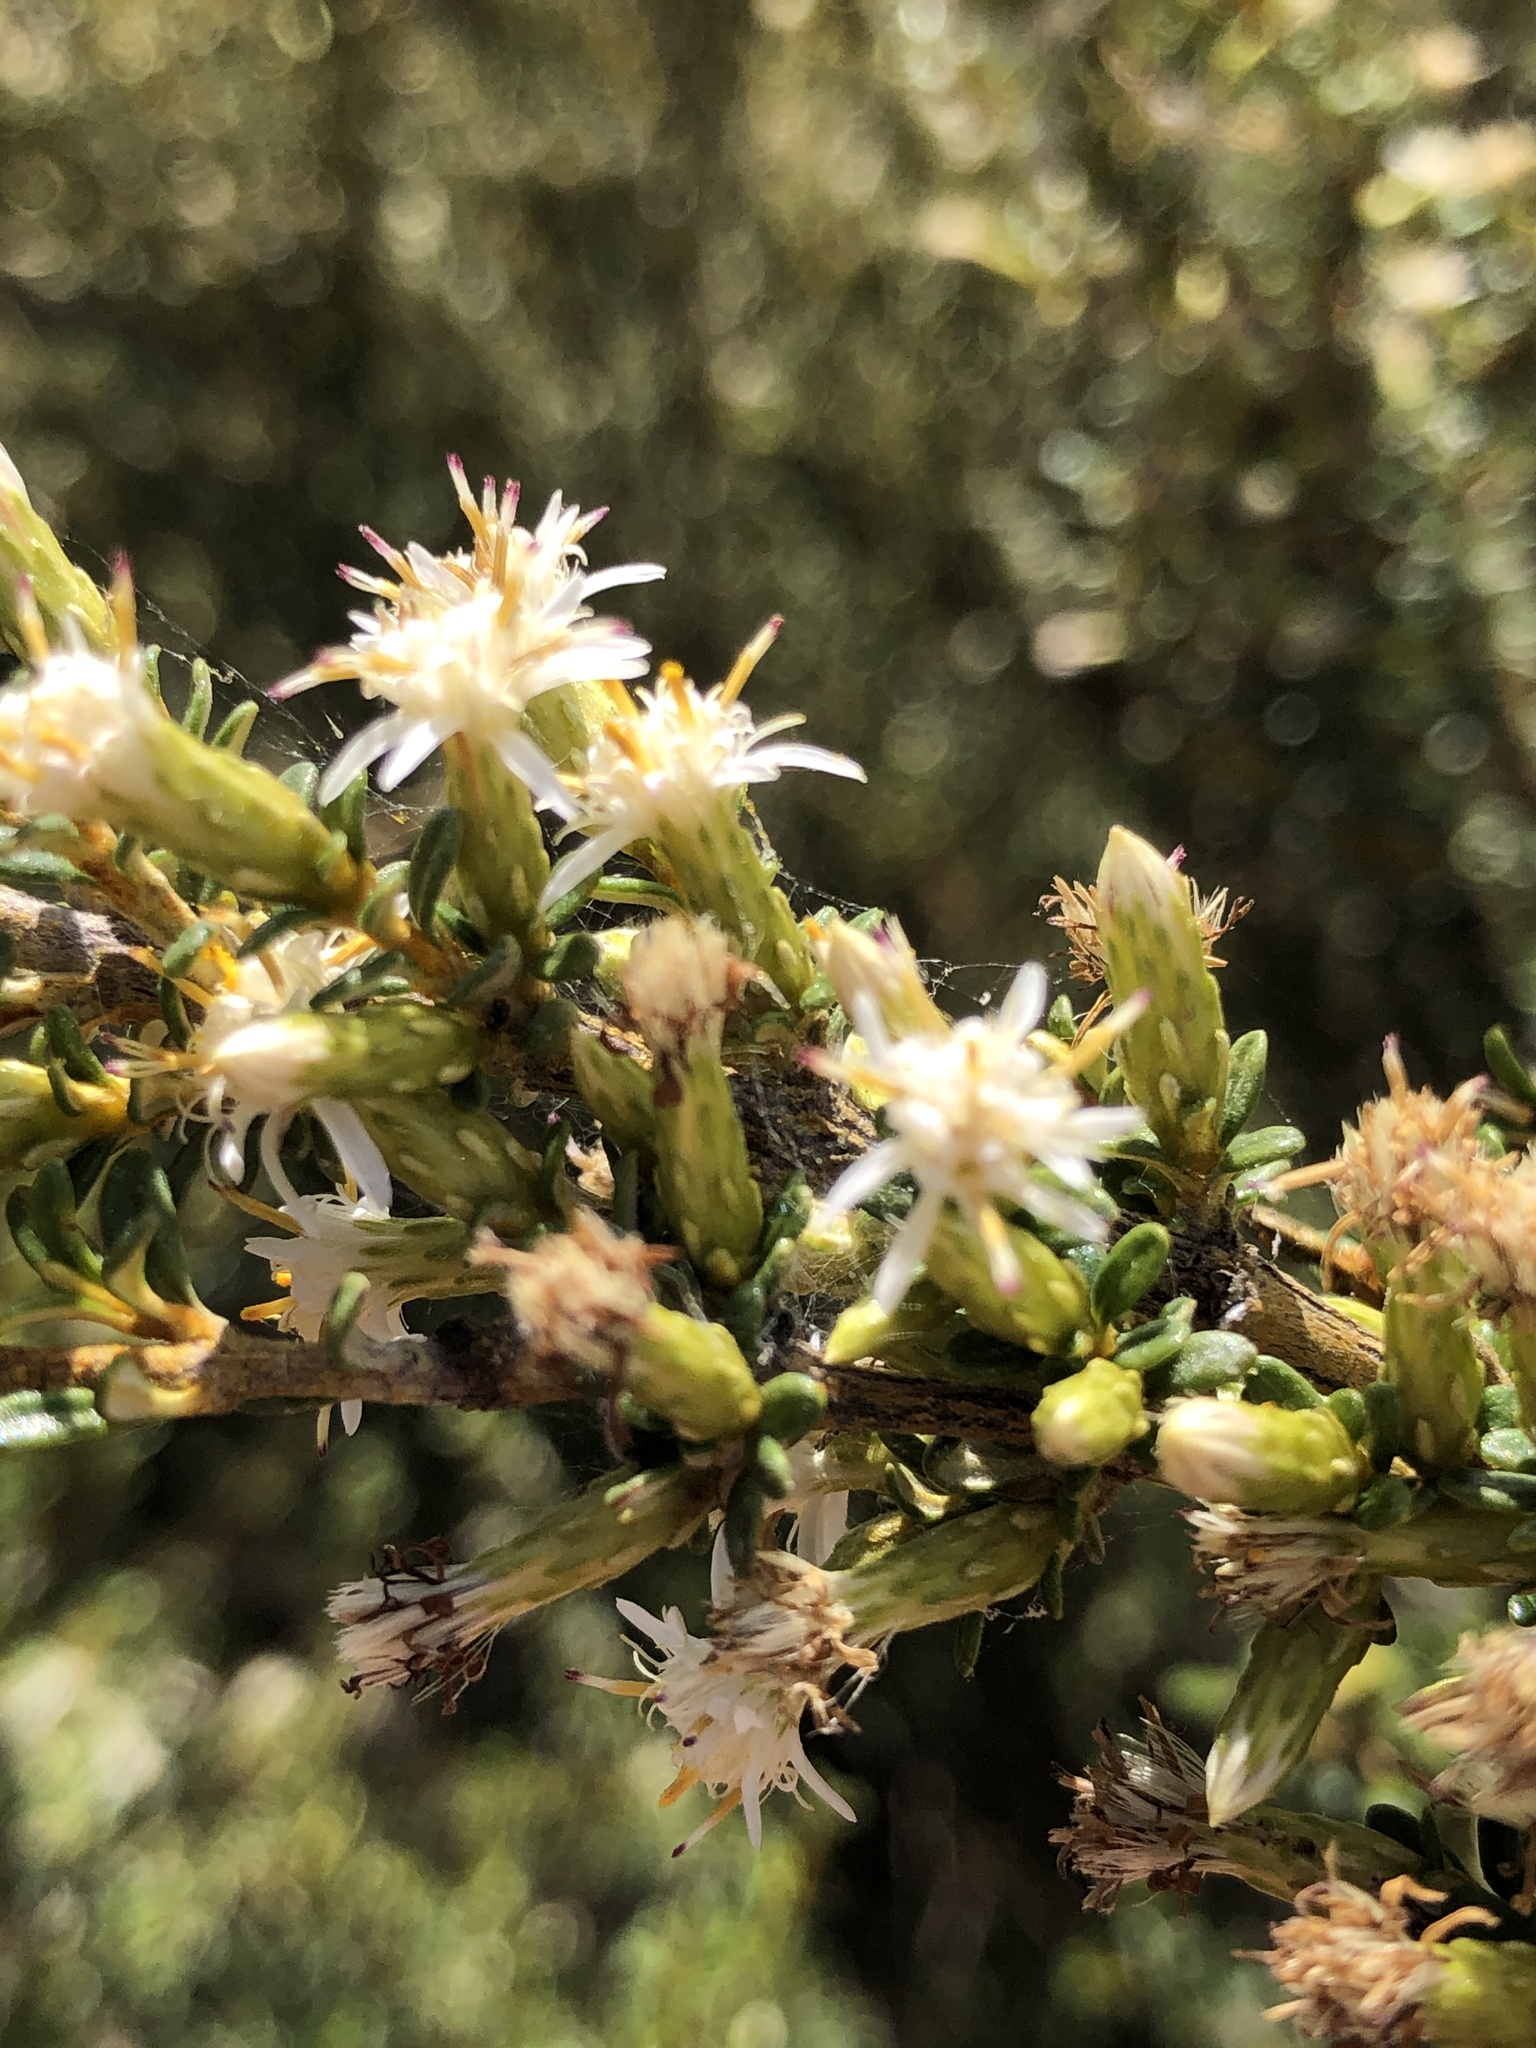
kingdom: Plantae
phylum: Tracheophyta
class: Magnoliopsida
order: Asterales
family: Asteraceae
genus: Olearia
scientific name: Olearia solandri
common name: Coastal daisybush
